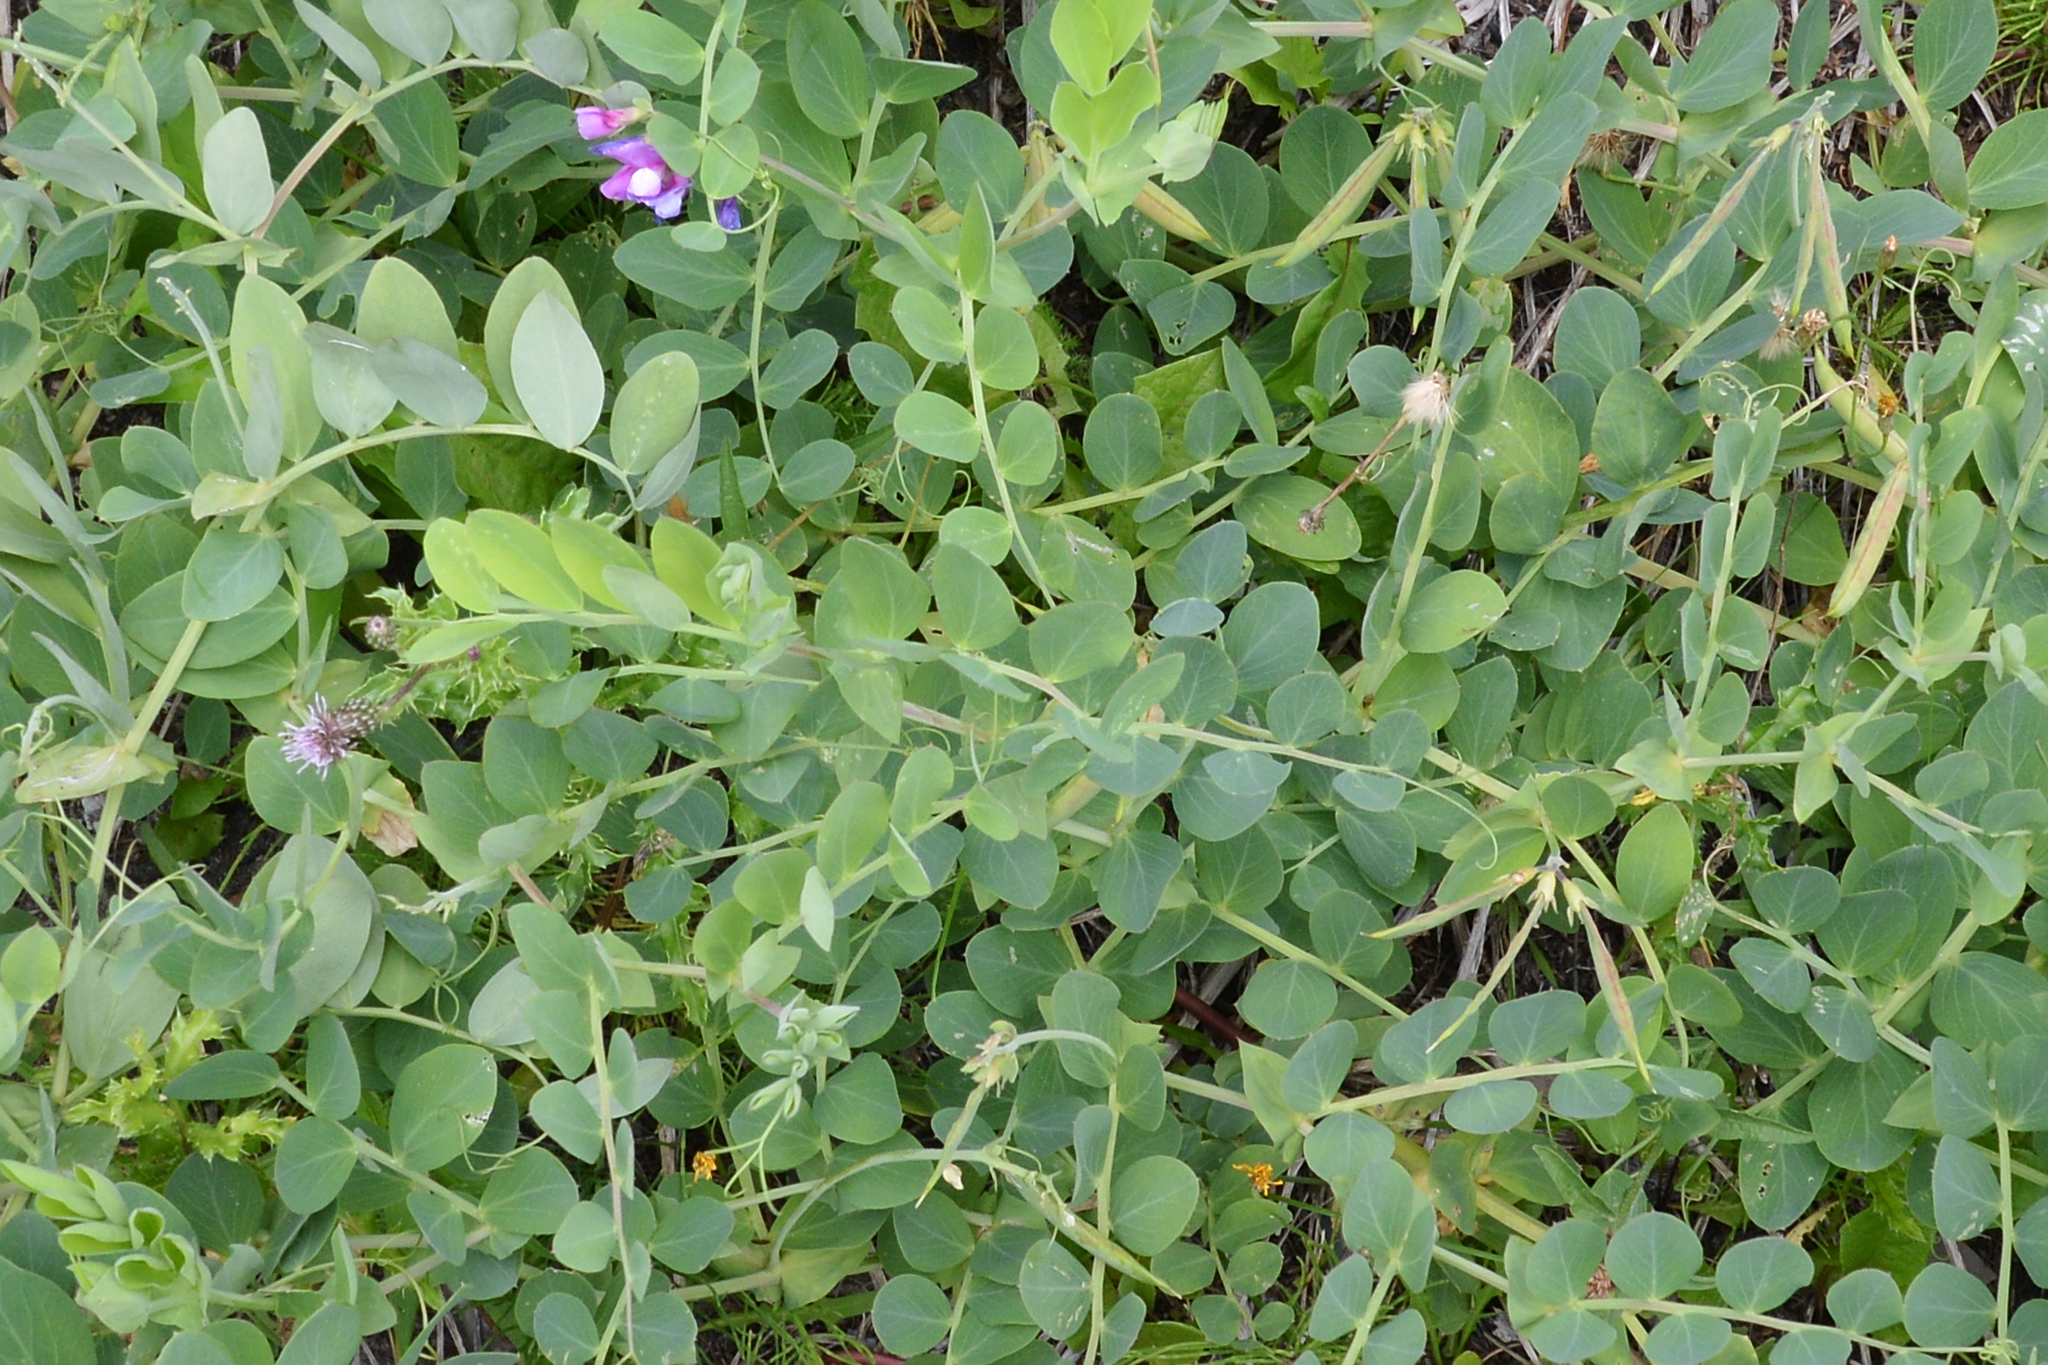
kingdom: Plantae
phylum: Tracheophyta
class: Magnoliopsida
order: Fabales
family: Fabaceae
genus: Lathyrus
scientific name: Lathyrus japonicus
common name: Sea pea
